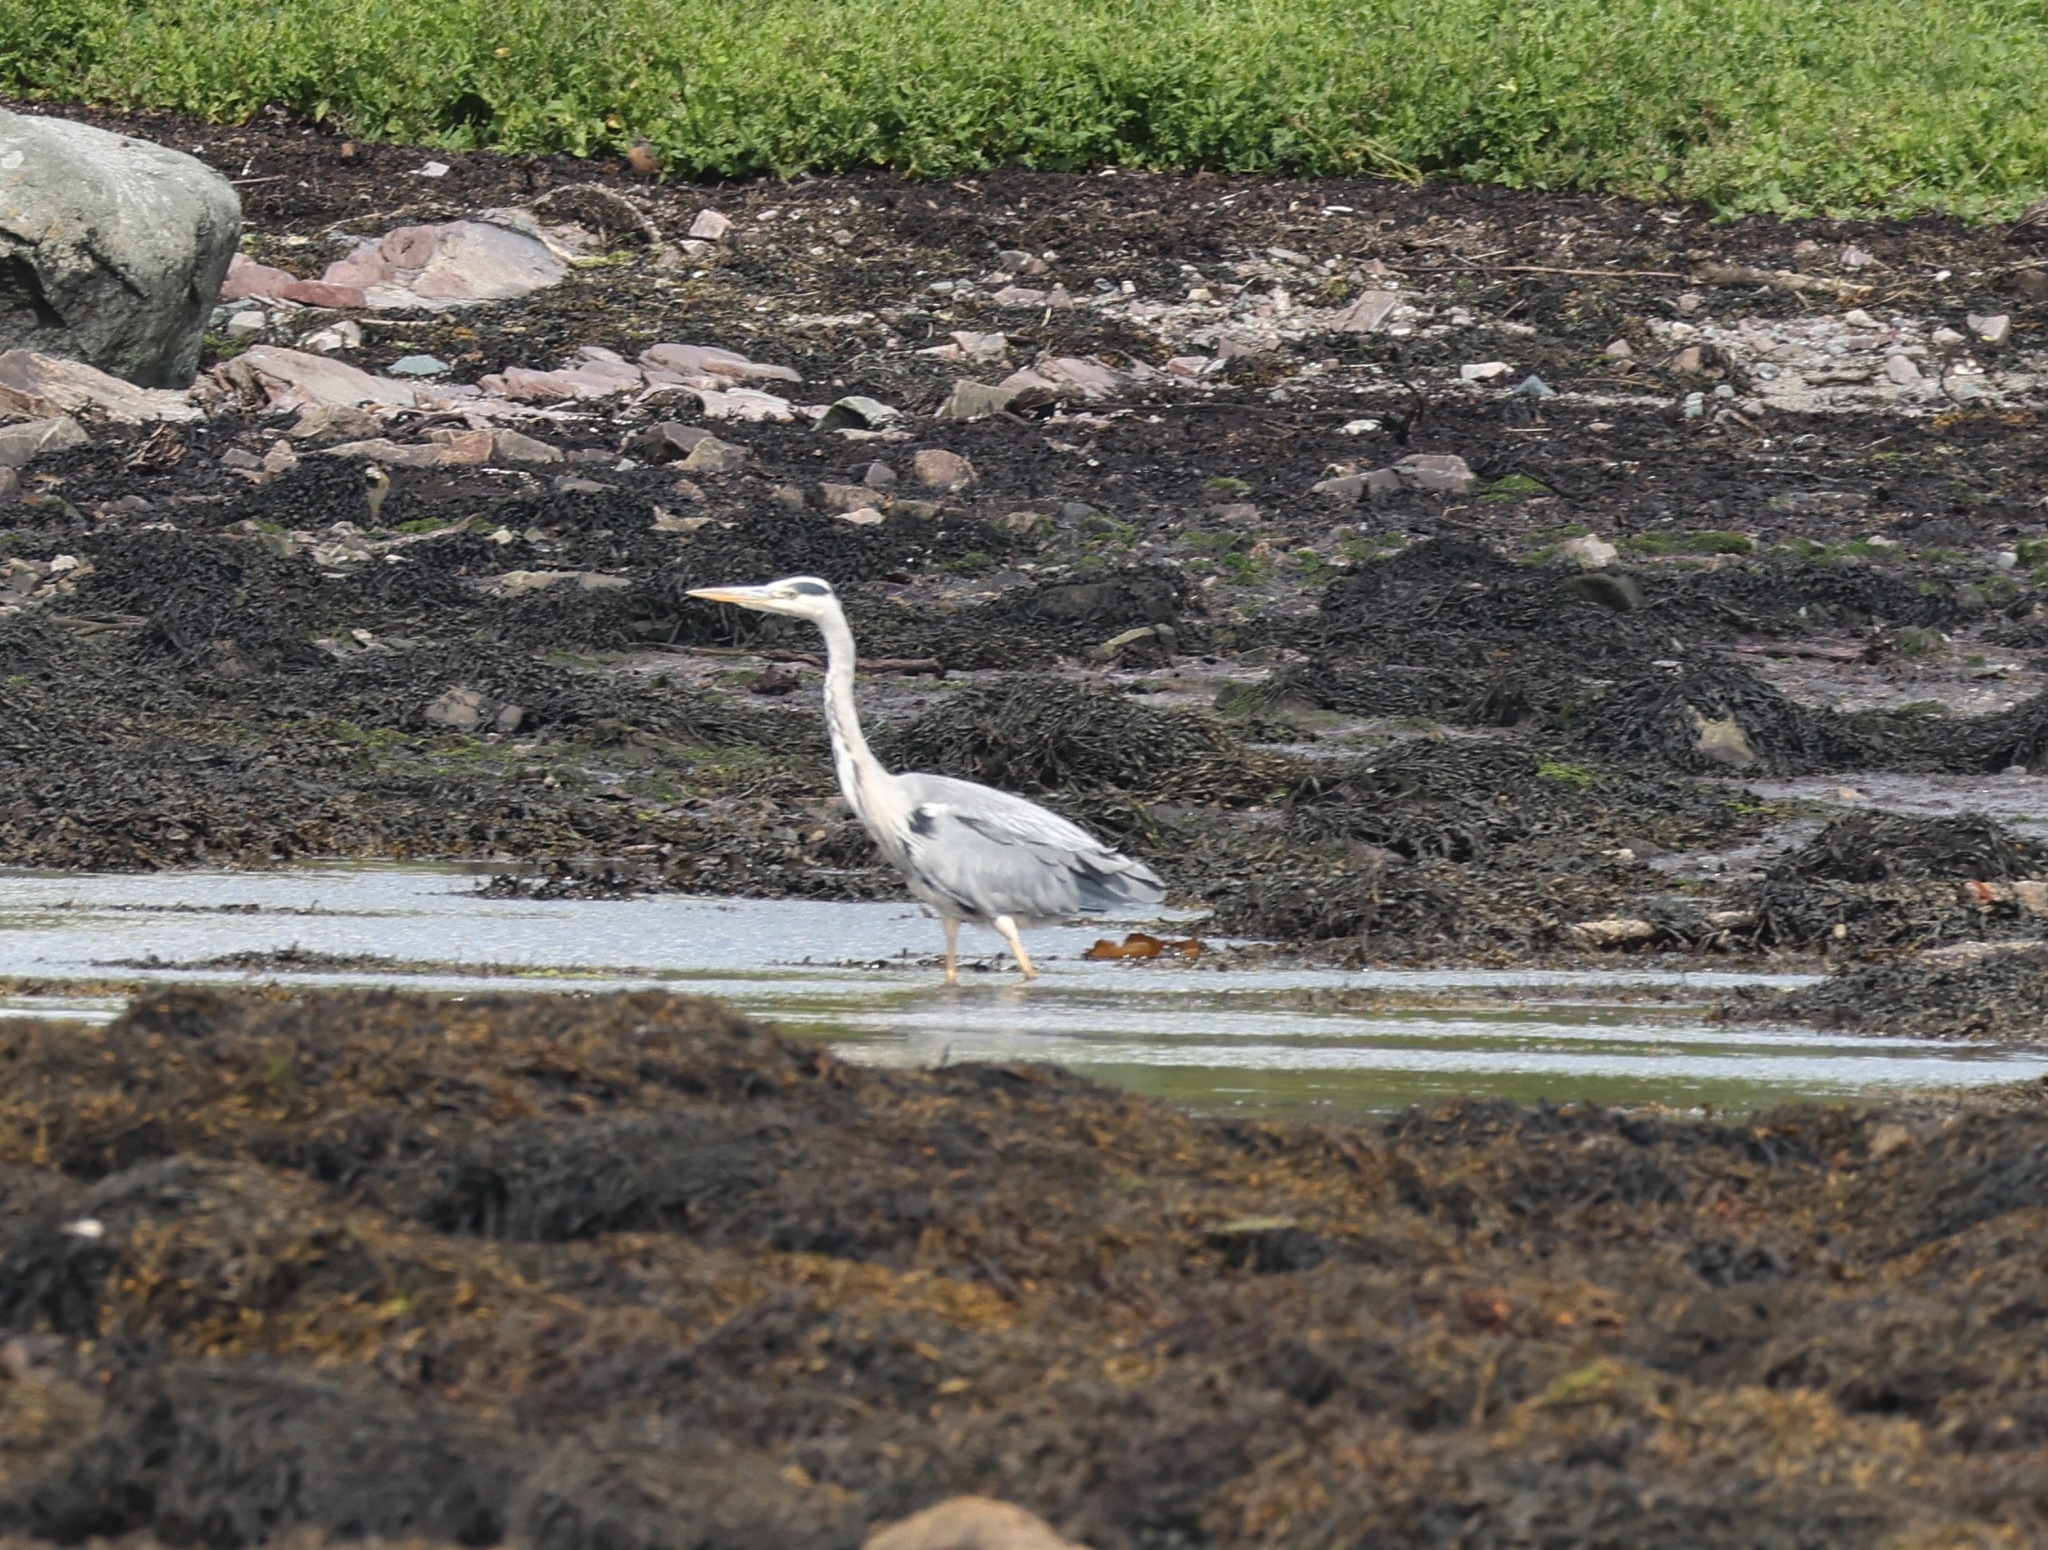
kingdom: Animalia
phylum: Chordata
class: Aves
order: Pelecaniformes
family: Ardeidae
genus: Ardea
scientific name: Ardea cinerea
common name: Grey heron
